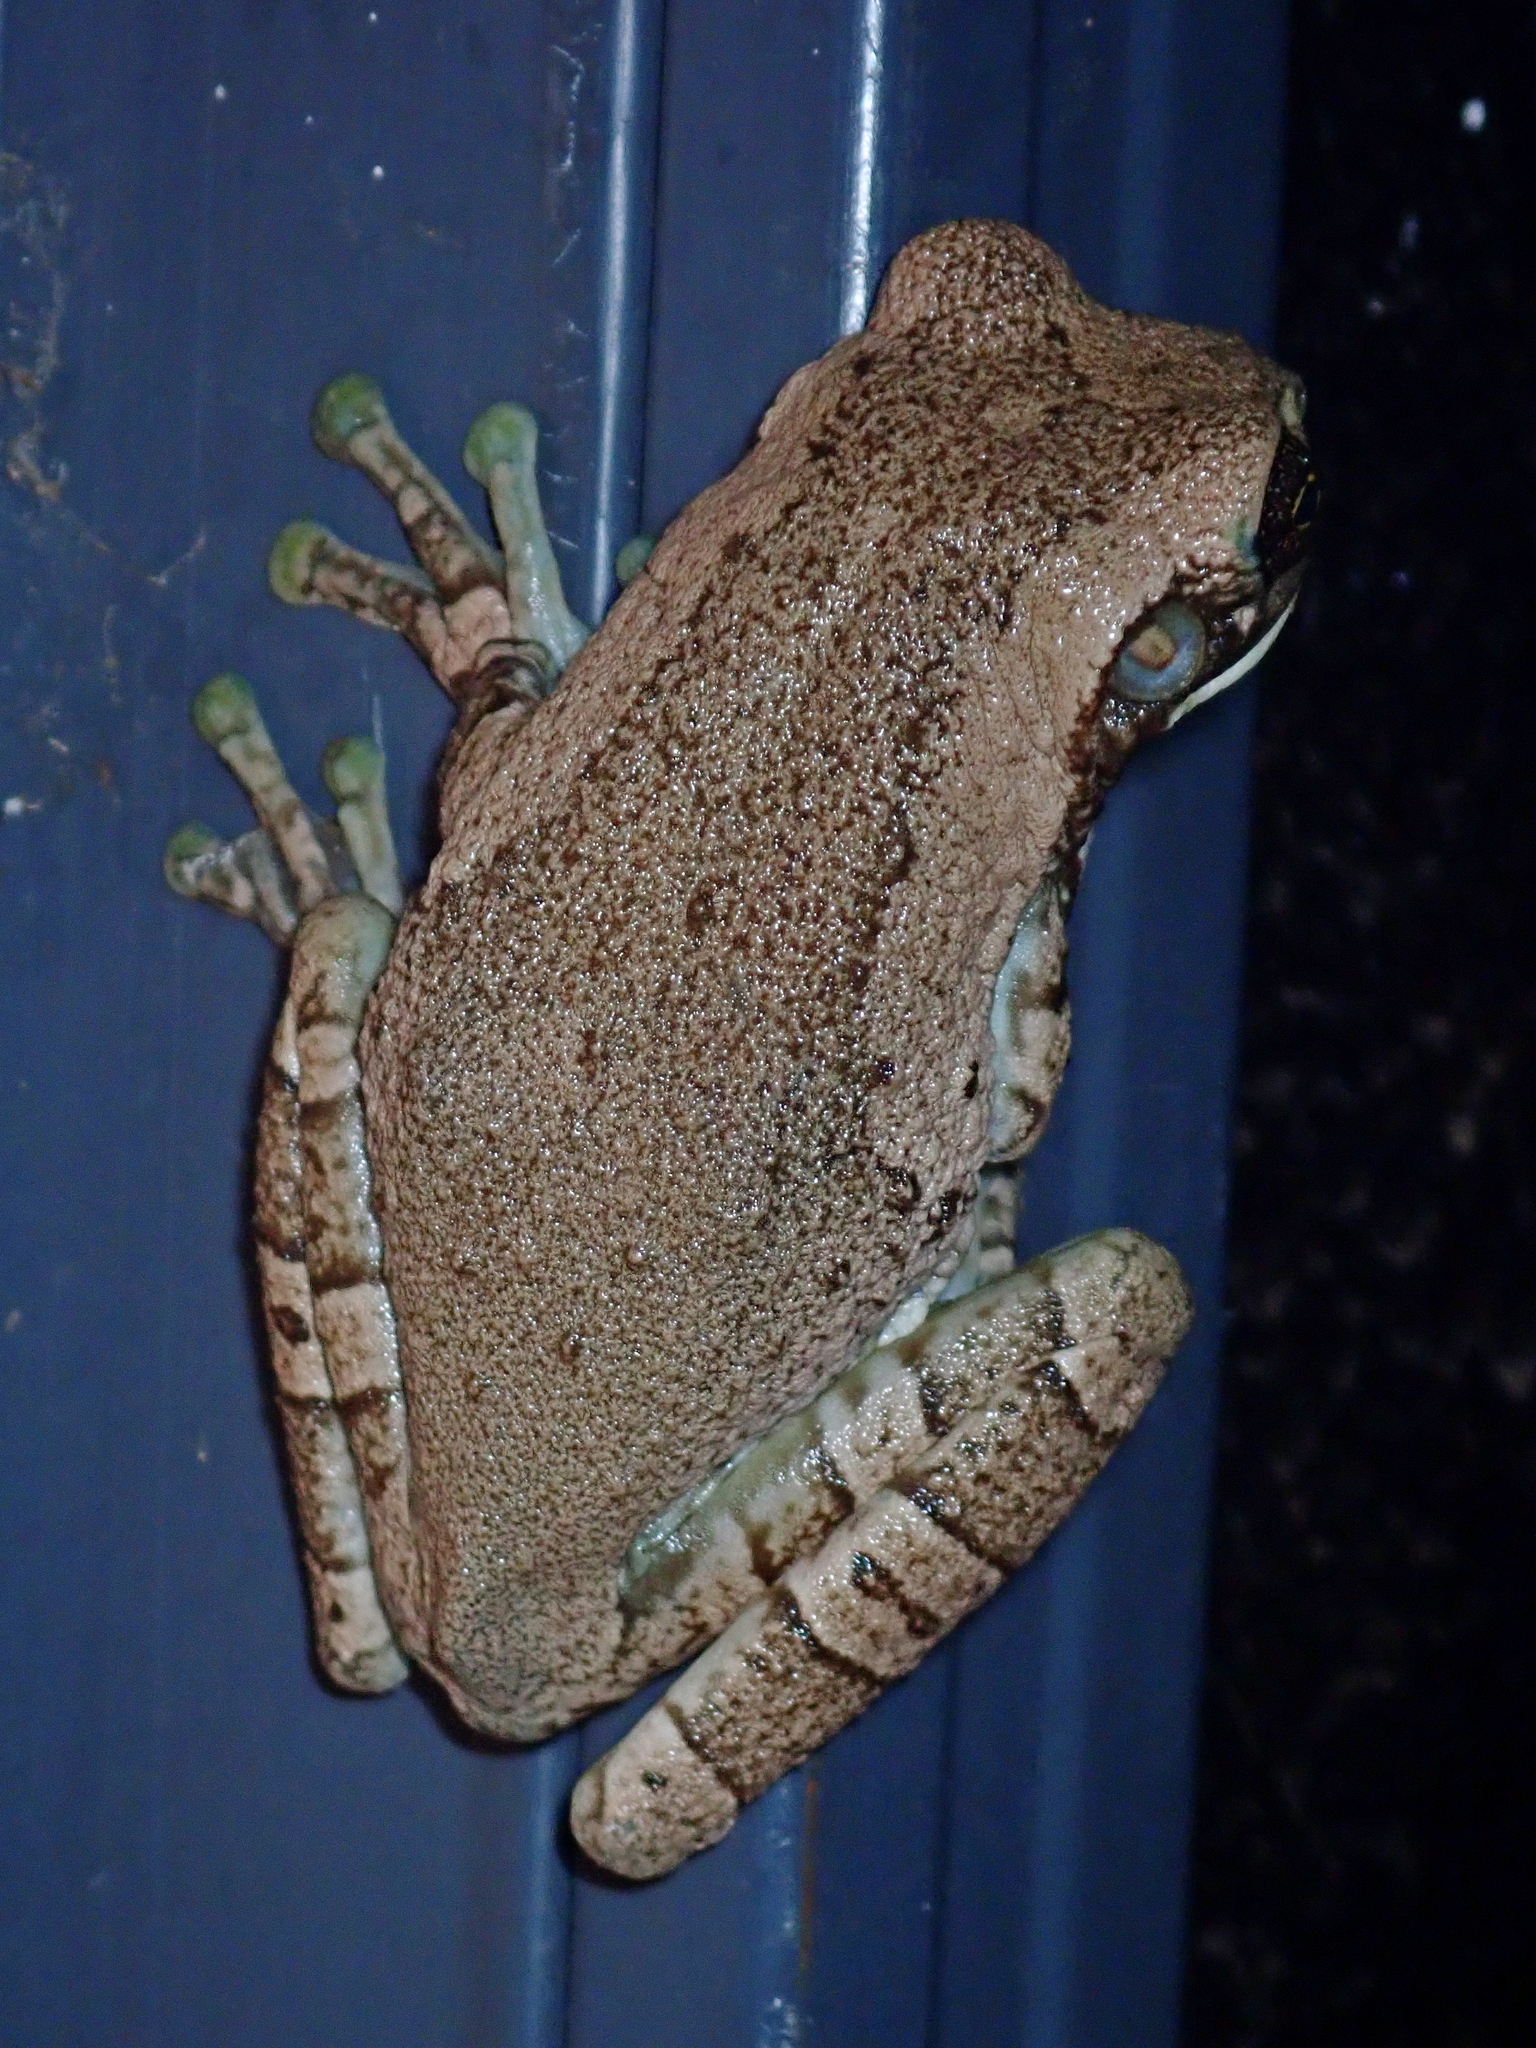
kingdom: Animalia
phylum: Chordata
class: Amphibia
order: Anura
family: Hylidae
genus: Trachycephalus
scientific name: Trachycephalus typhonius
